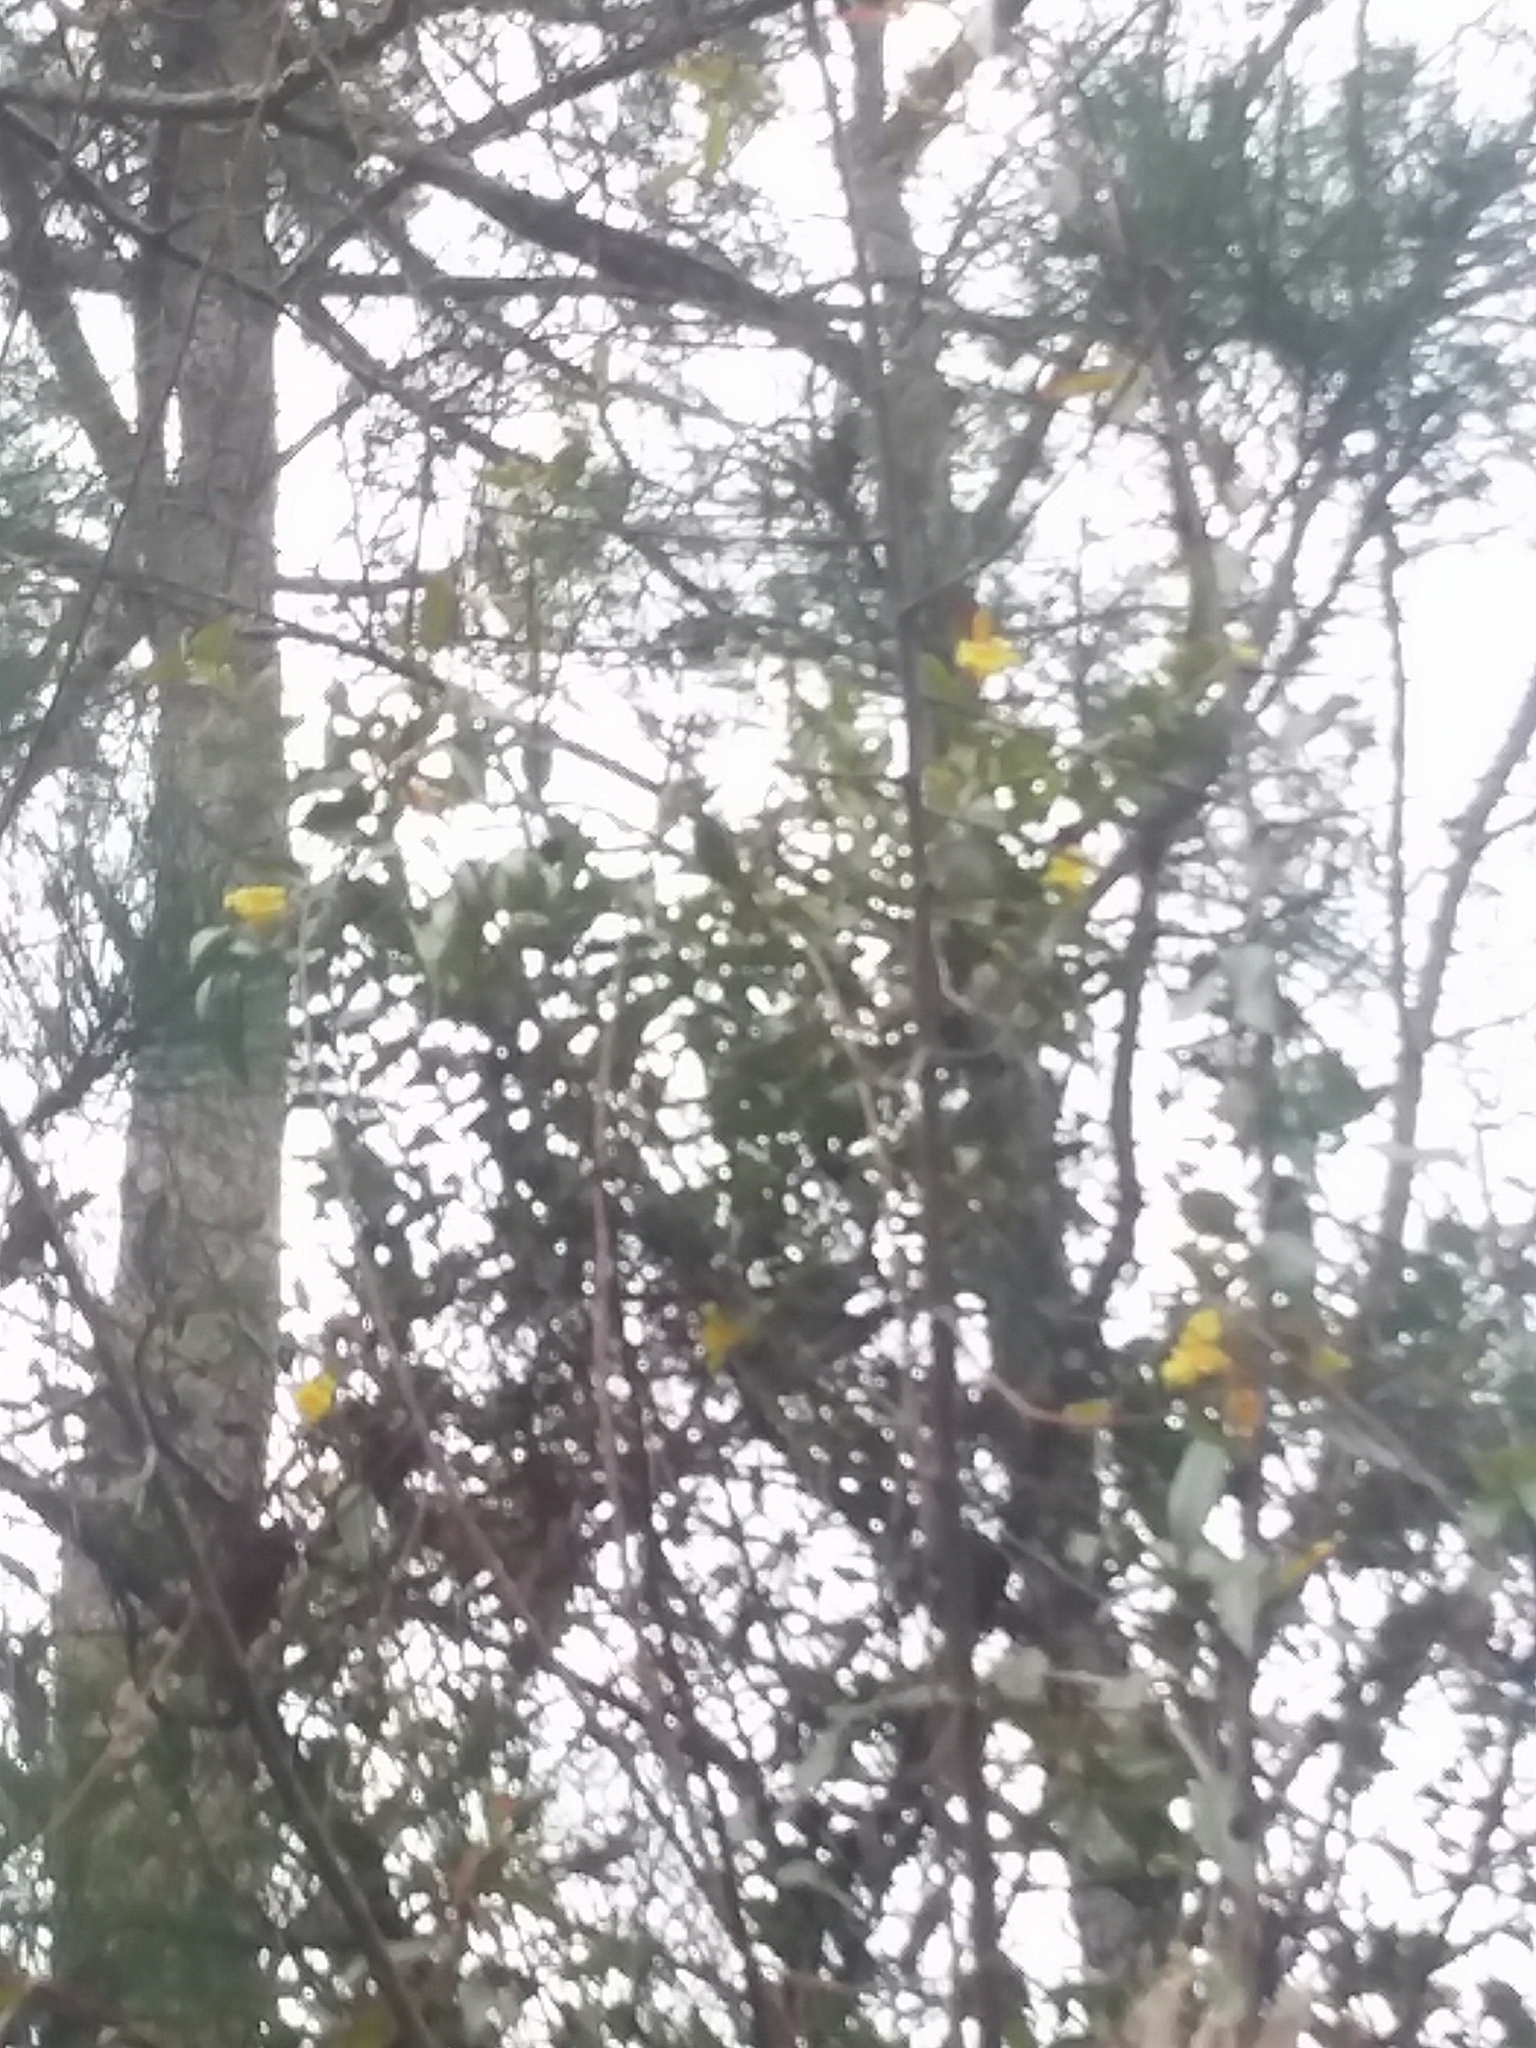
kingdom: Plantae
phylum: Tracheophyta
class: Magnoliopsida
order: Gentianales
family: Gelsemiaceae
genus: Gelsemium
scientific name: Gelsemium sempervirens
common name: Carolina-jasmine
